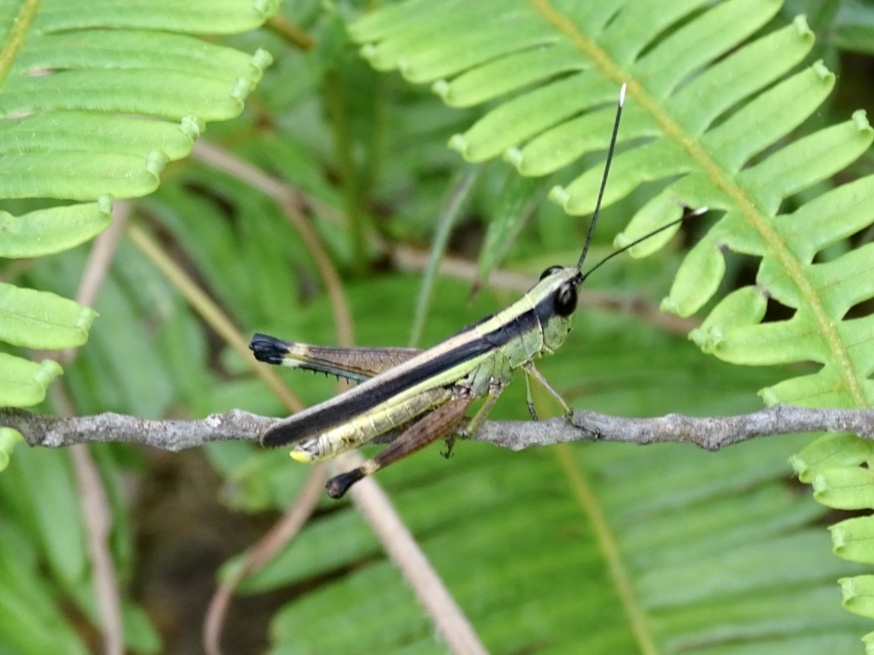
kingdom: Animalia
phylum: Arthropoda
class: Insecta
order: Orthoptera
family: Acrididae
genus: Ceracris
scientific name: Ceracris fasciata
